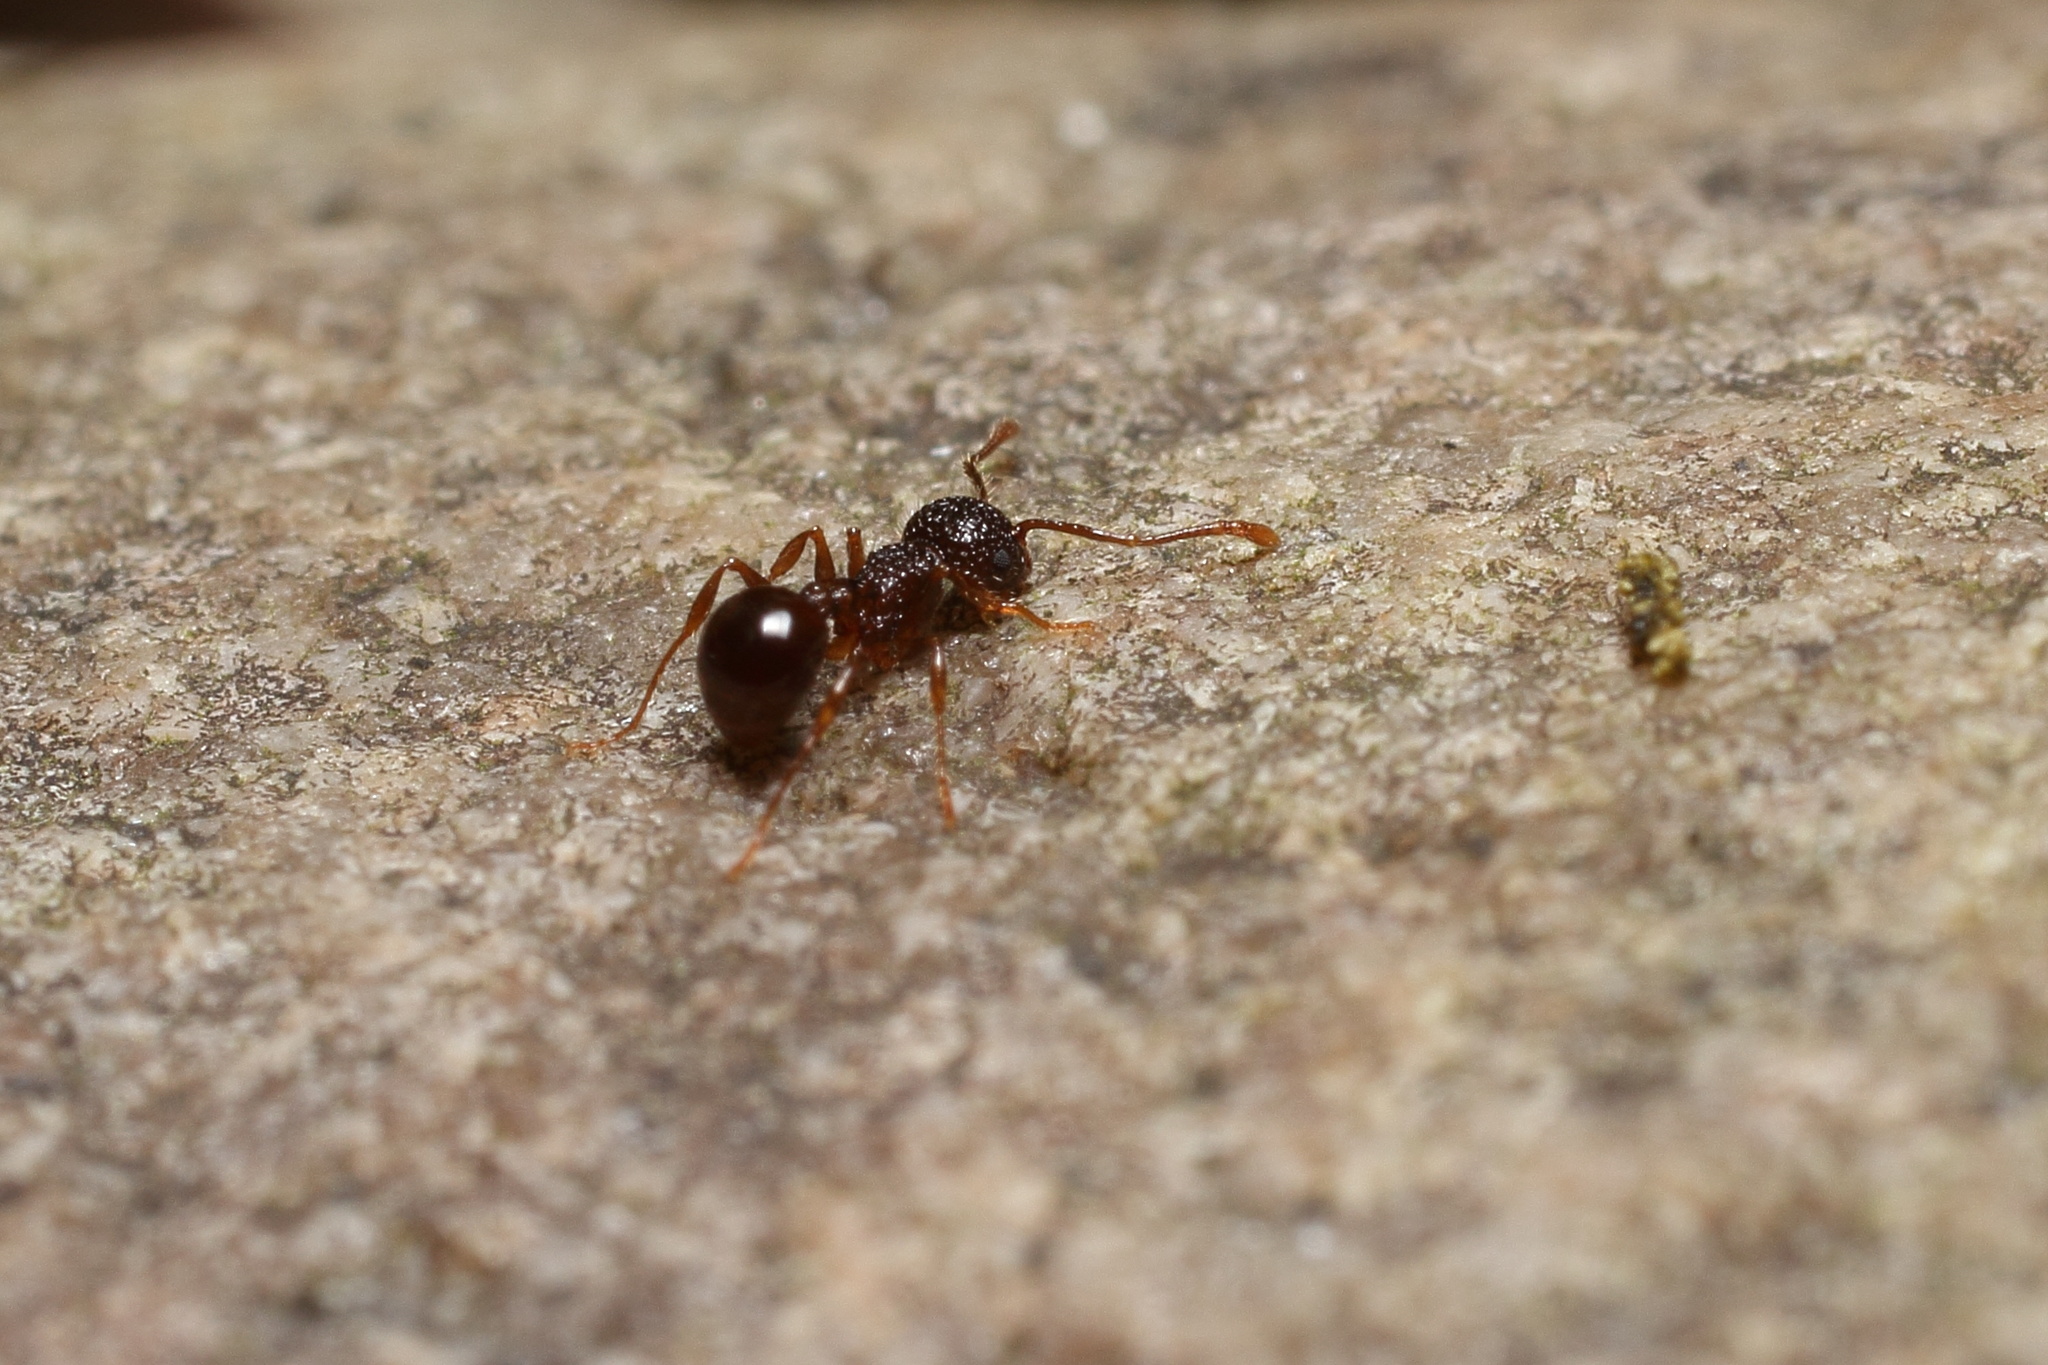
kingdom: Animalia
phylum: Arthropoda
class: Insecta
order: Hymenoptera
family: Formicidae
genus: Pristomyrmex
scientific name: Pristomyrmex punctatus
